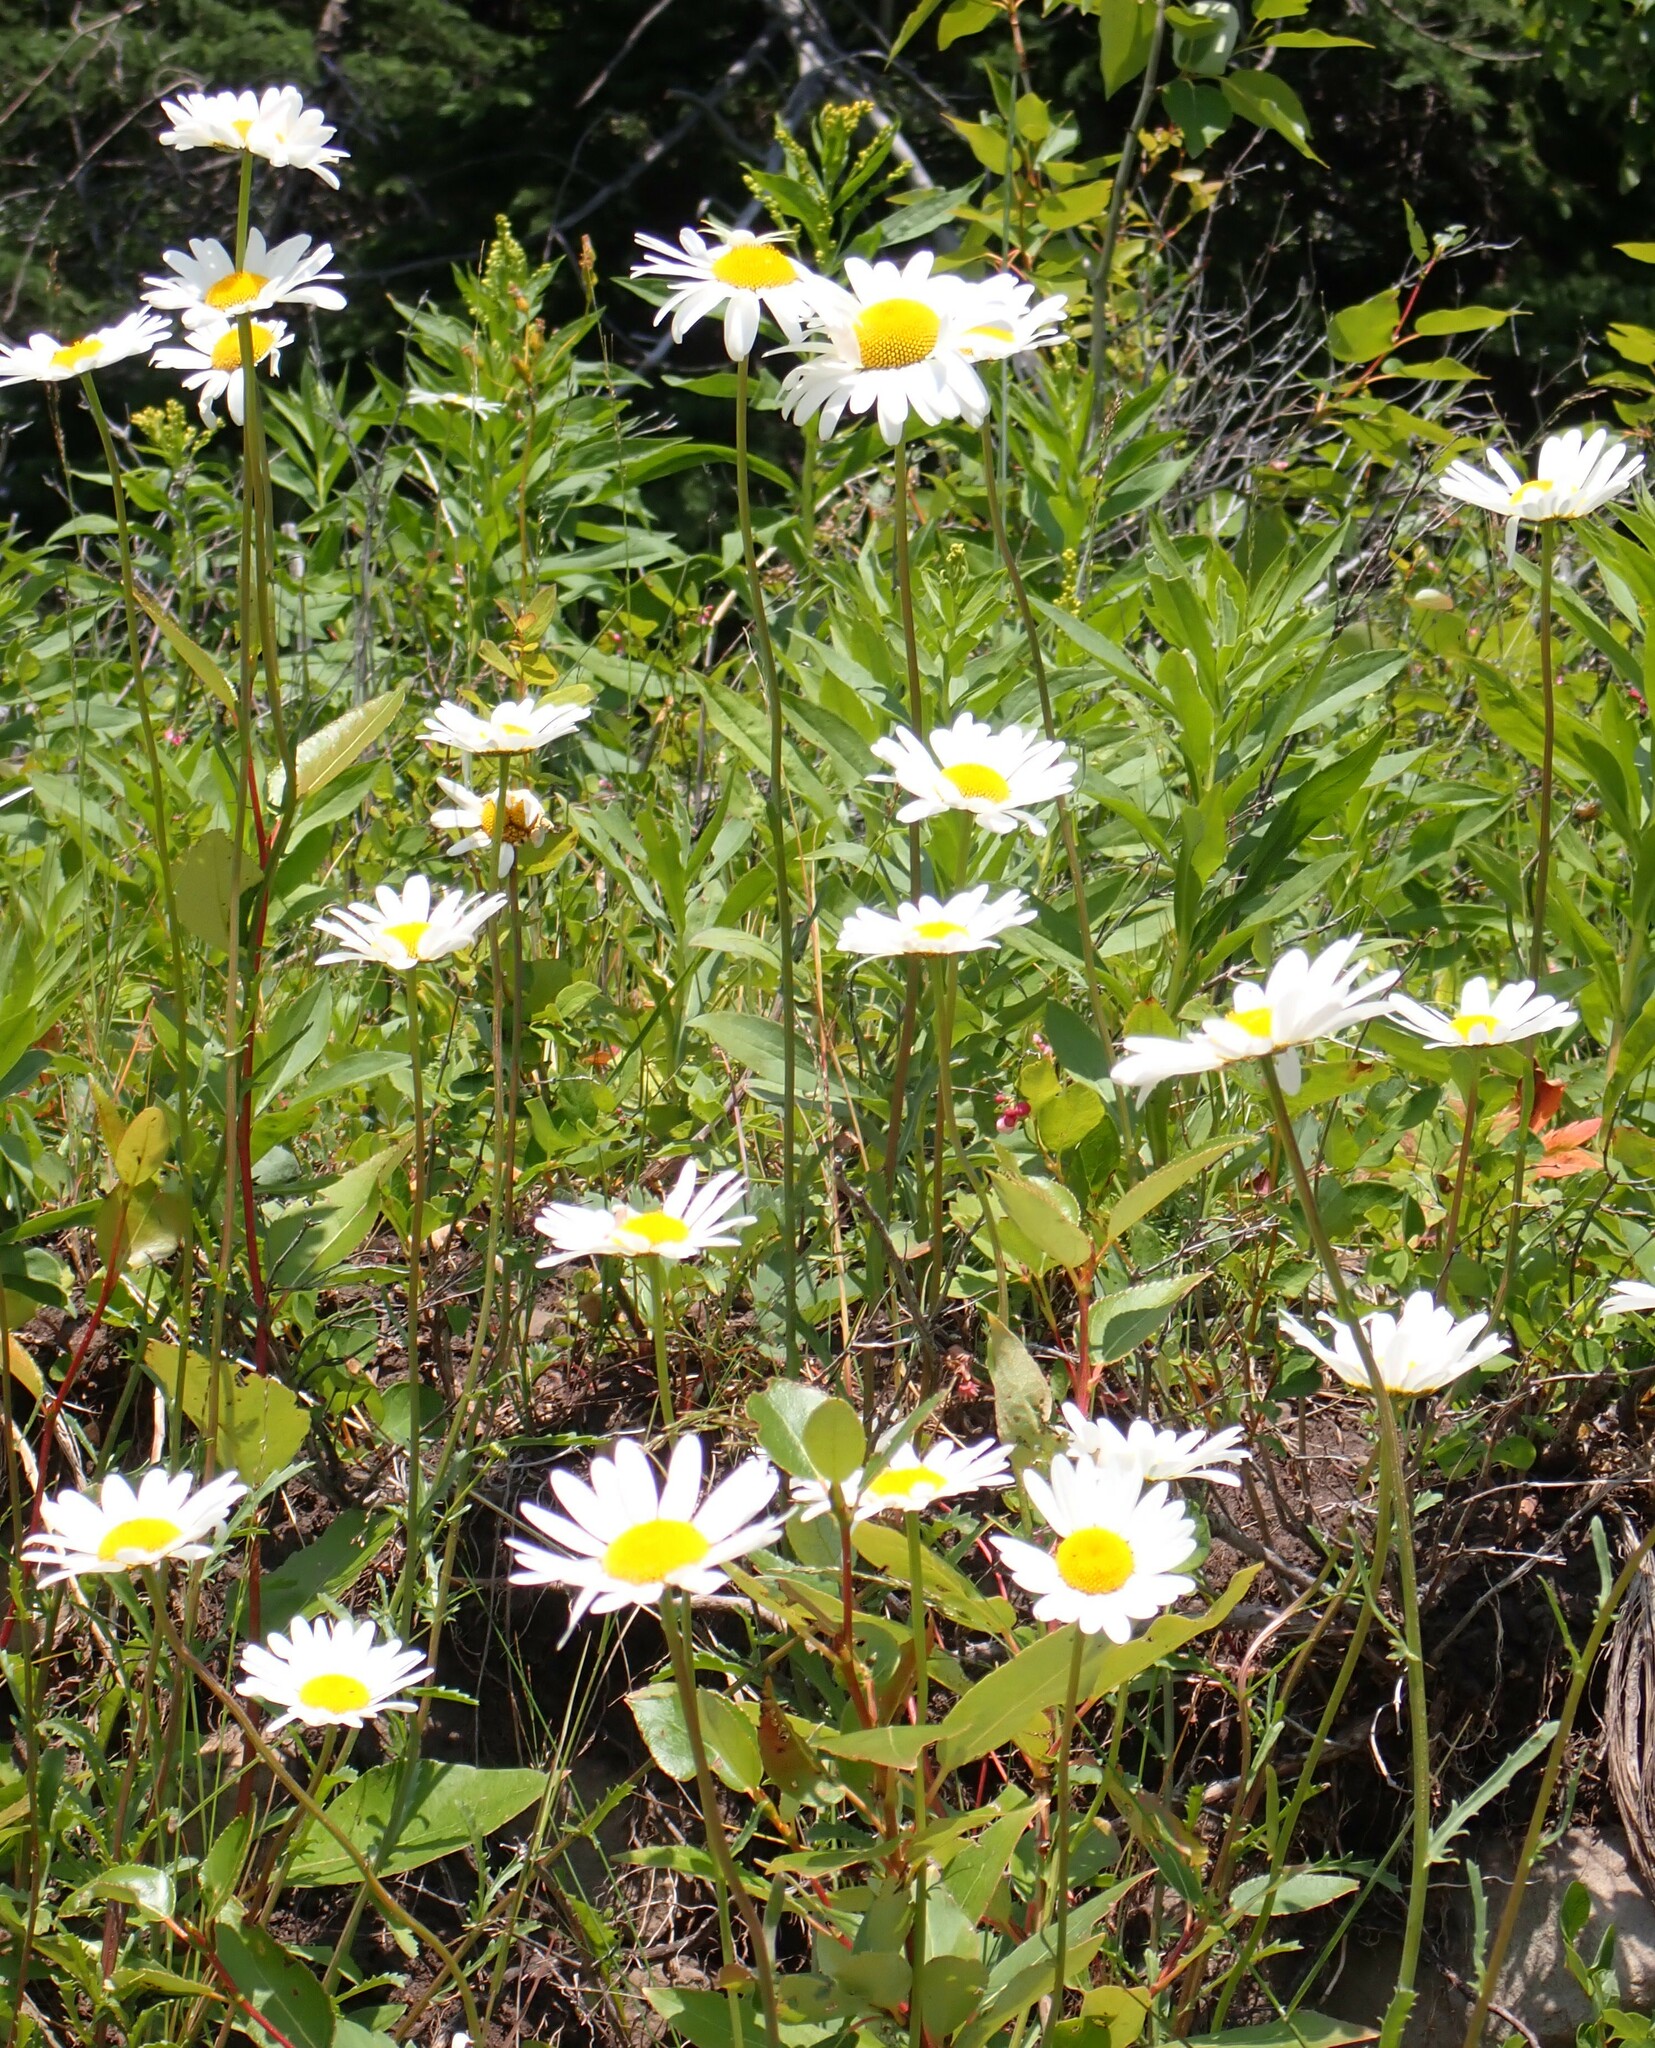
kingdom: Plantae
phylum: Tracheophyta
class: Magnoliopsida
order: Asterales
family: Asteraceae
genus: Leucanthemum
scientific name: Leucanthemum vulgare
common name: Oxeye daisy
